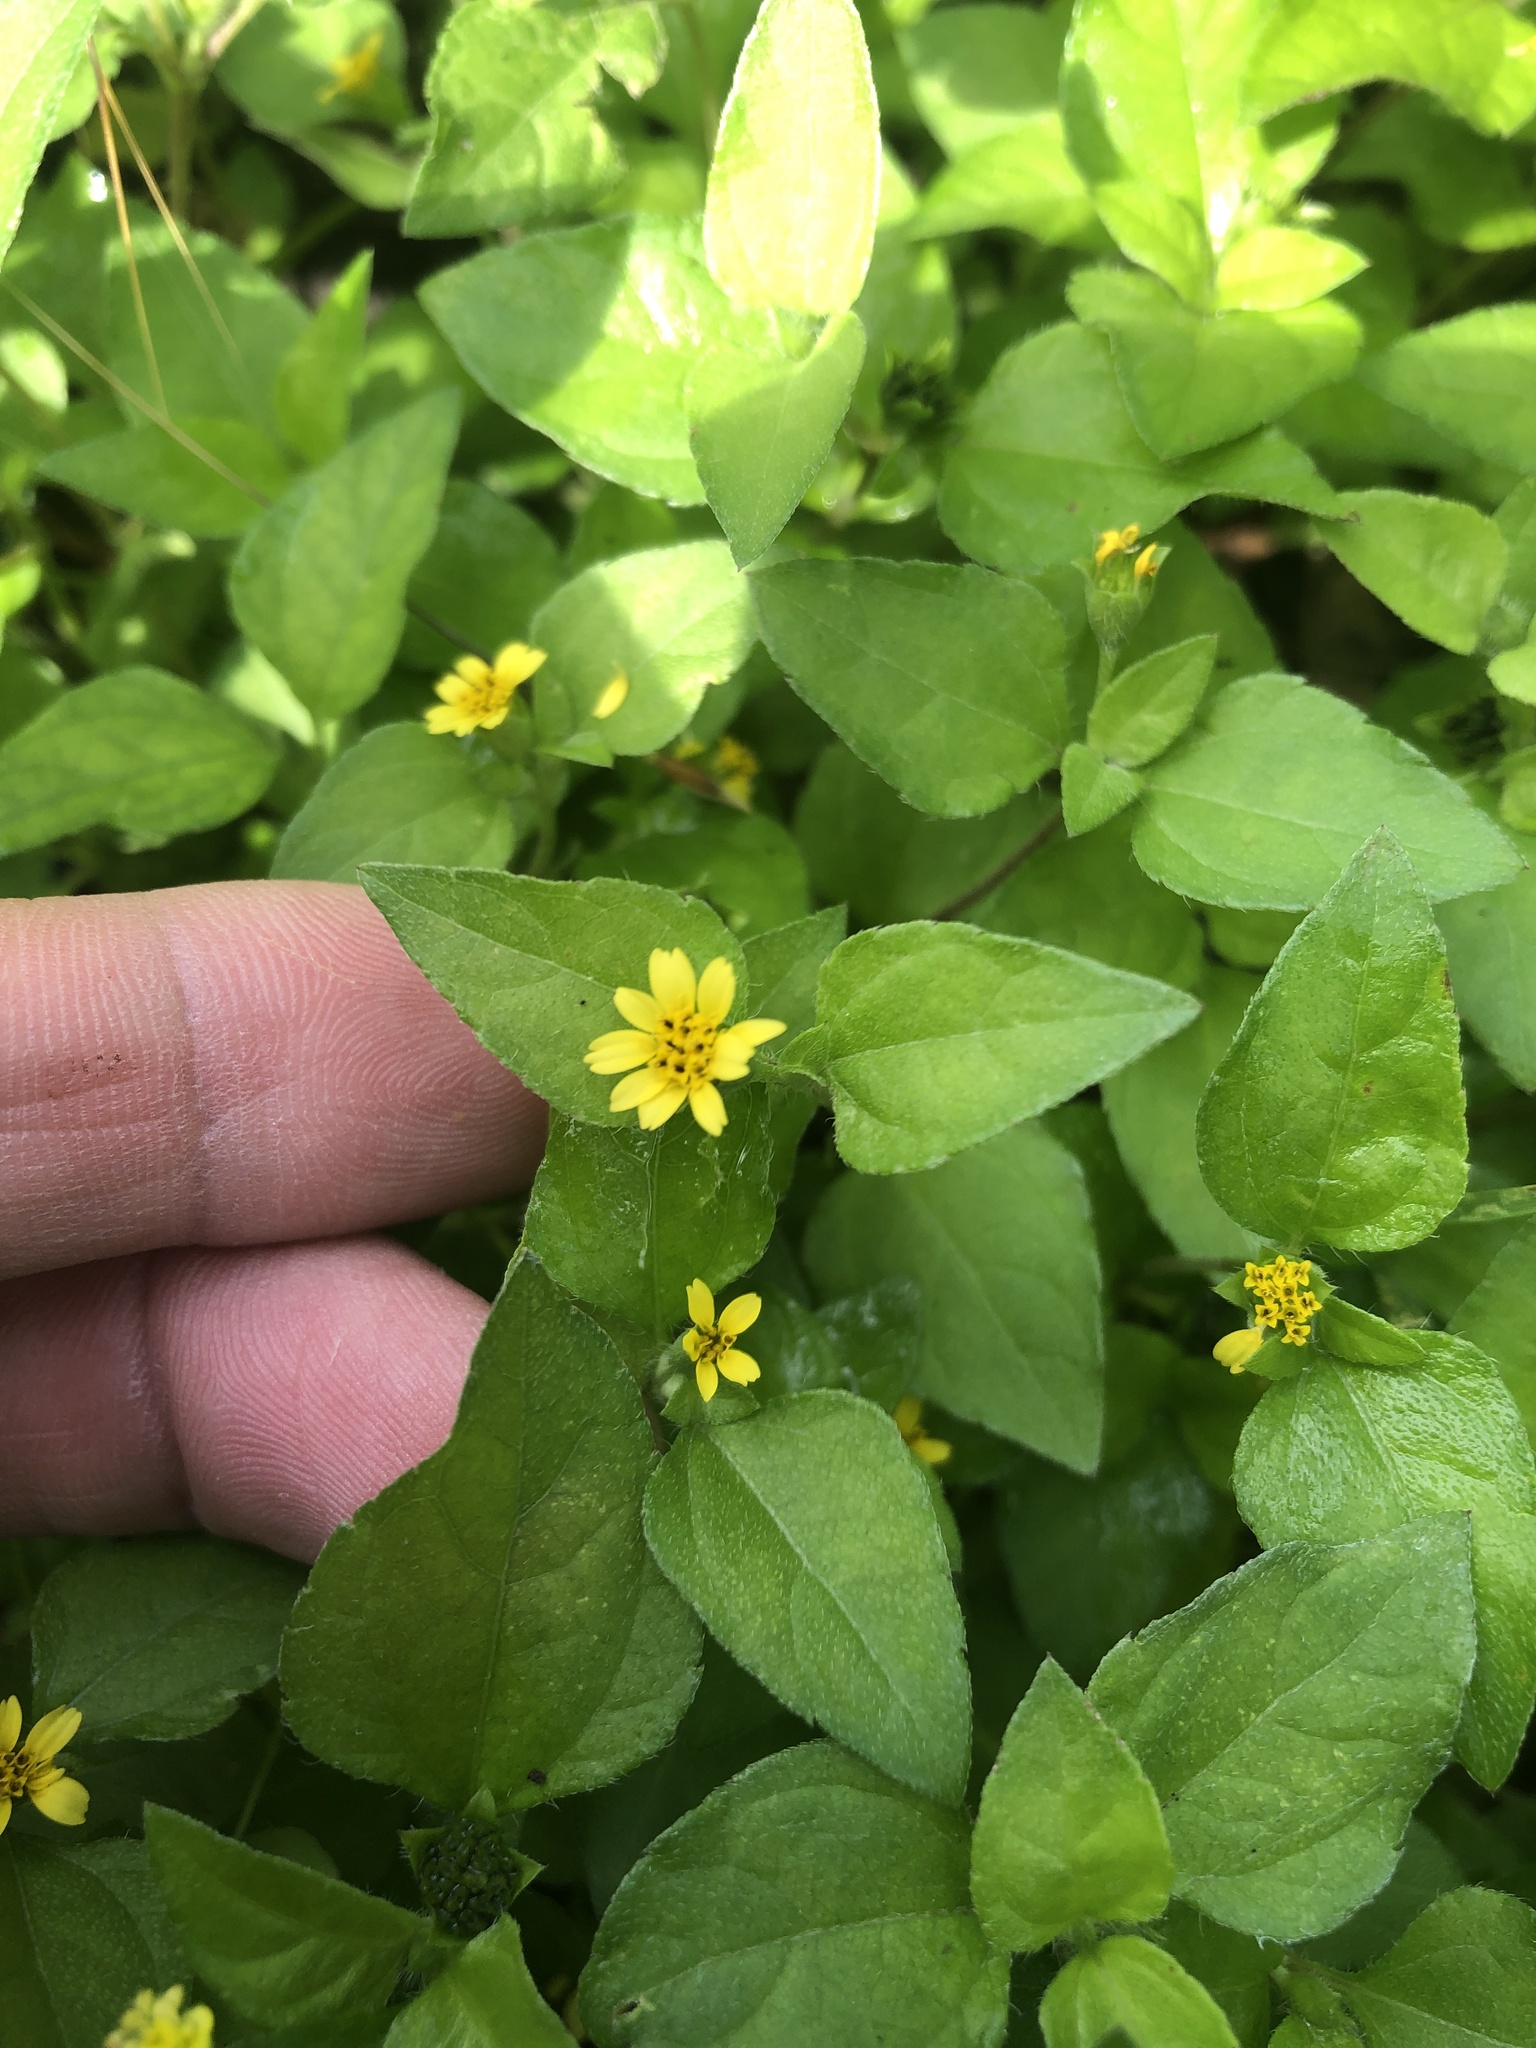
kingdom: Plantae
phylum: Tracheophyta
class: Magnoliopsida
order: Asterales
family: Asteraceae
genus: Calyptocarpus
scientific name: Calyptocarpus vialis
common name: Straggler daisy
